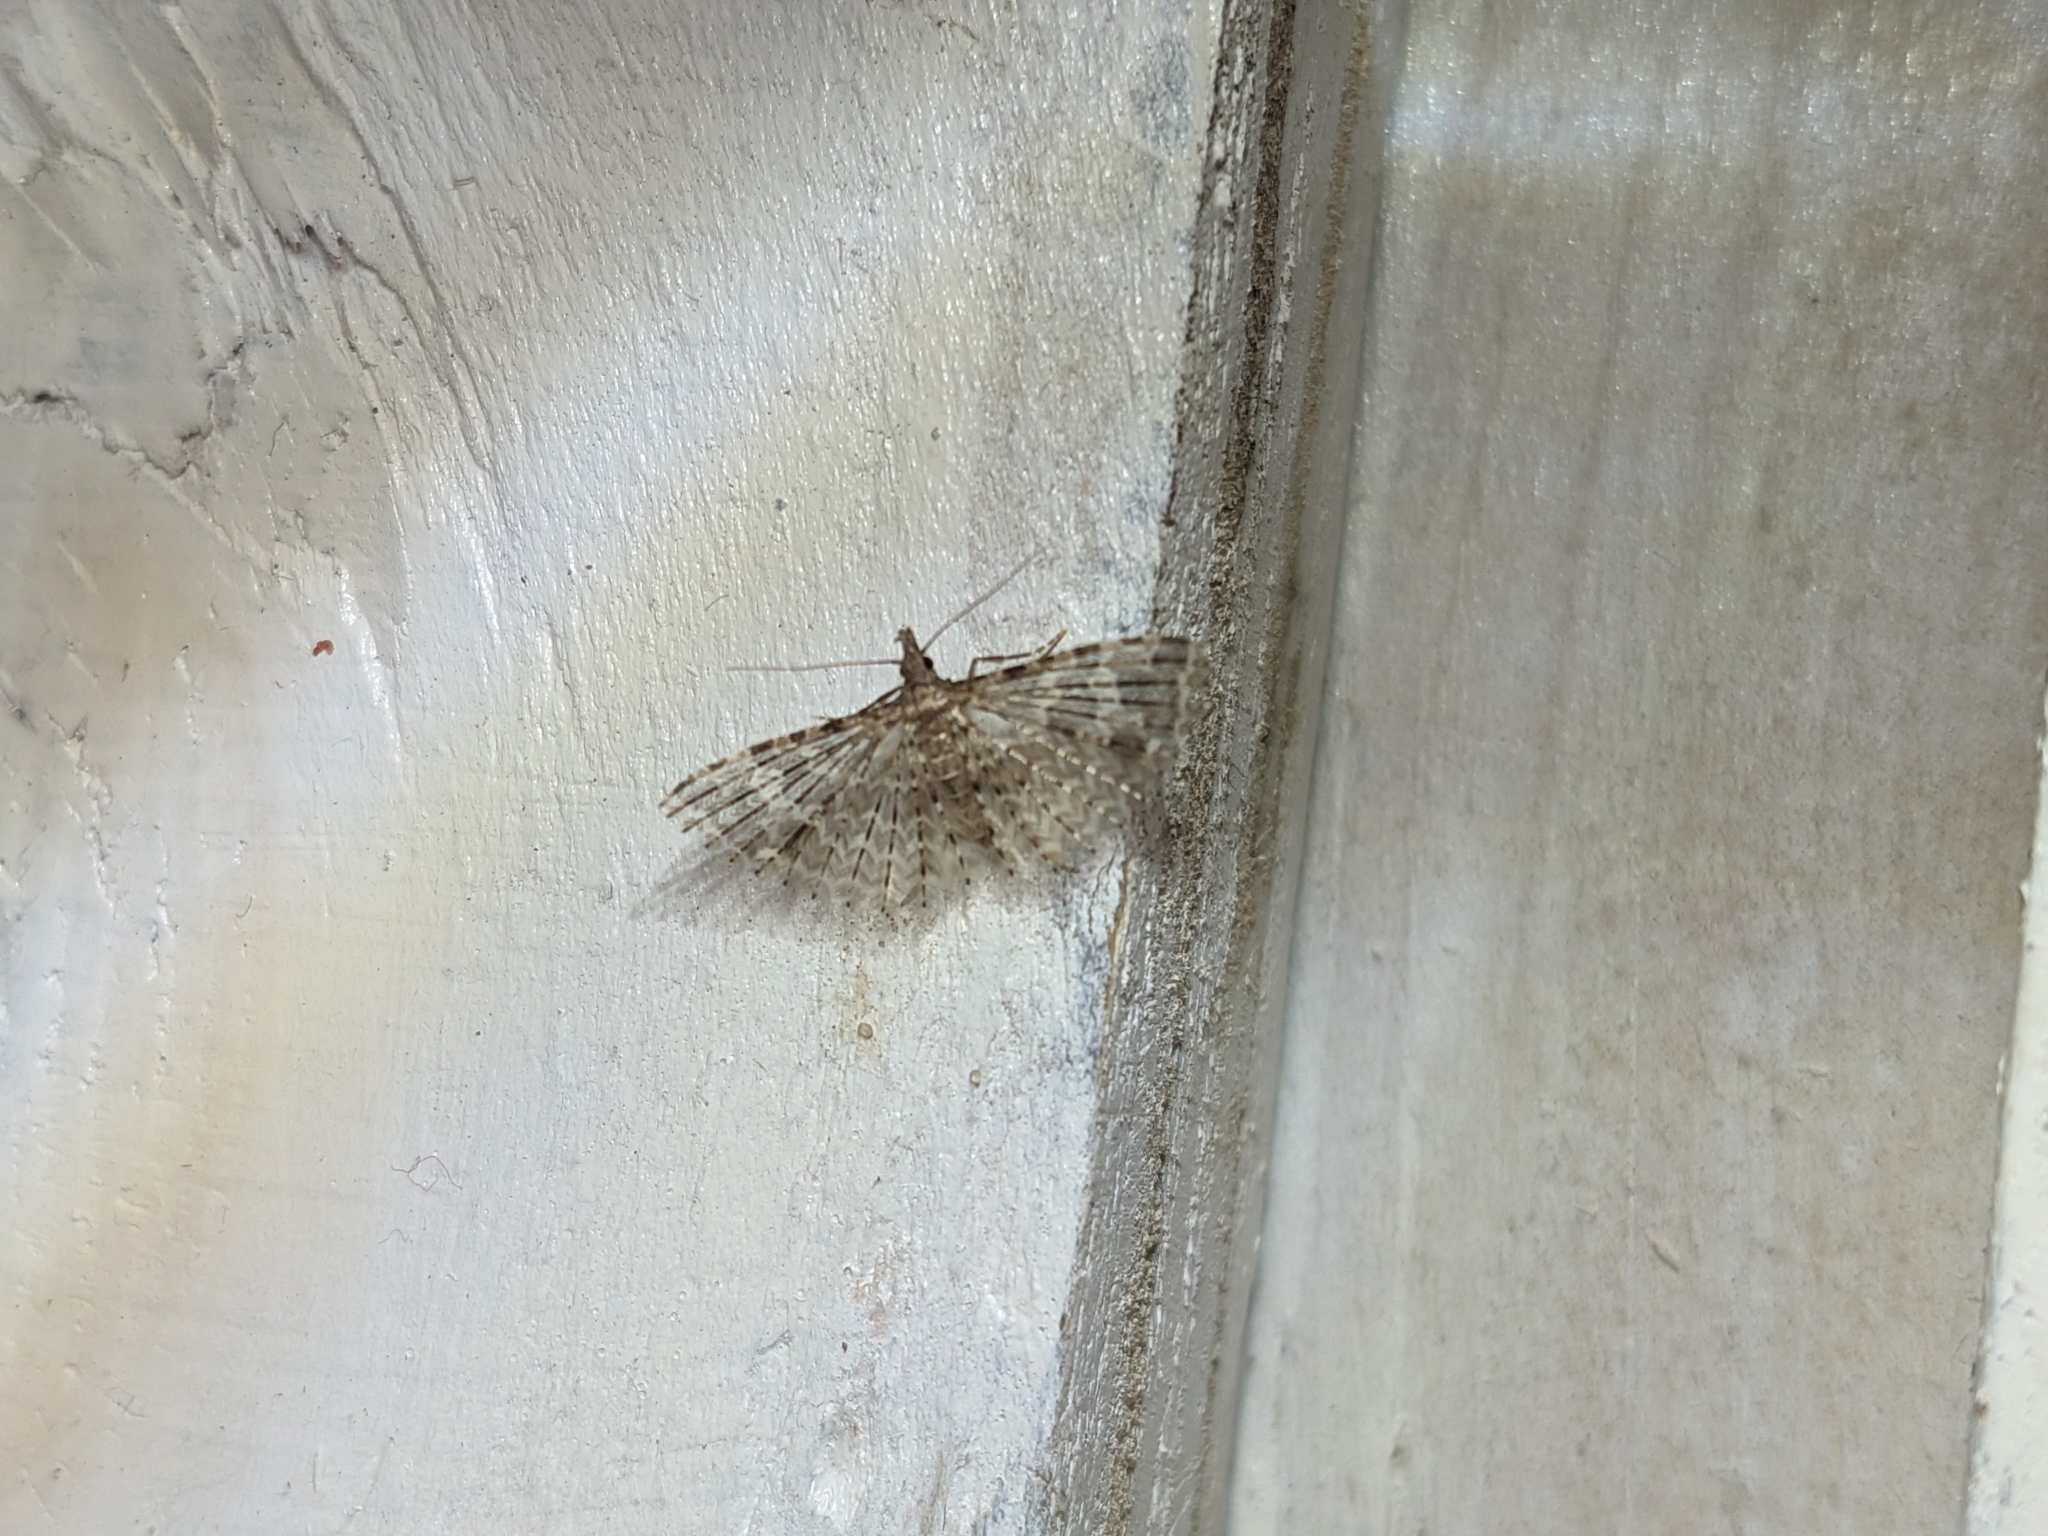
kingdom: Animalia
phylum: Arthropoda
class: Insecta
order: Lepidoptera
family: Alucitidae
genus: Alucita
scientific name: Alucita hexadactyla
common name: Twenty-plume moth
